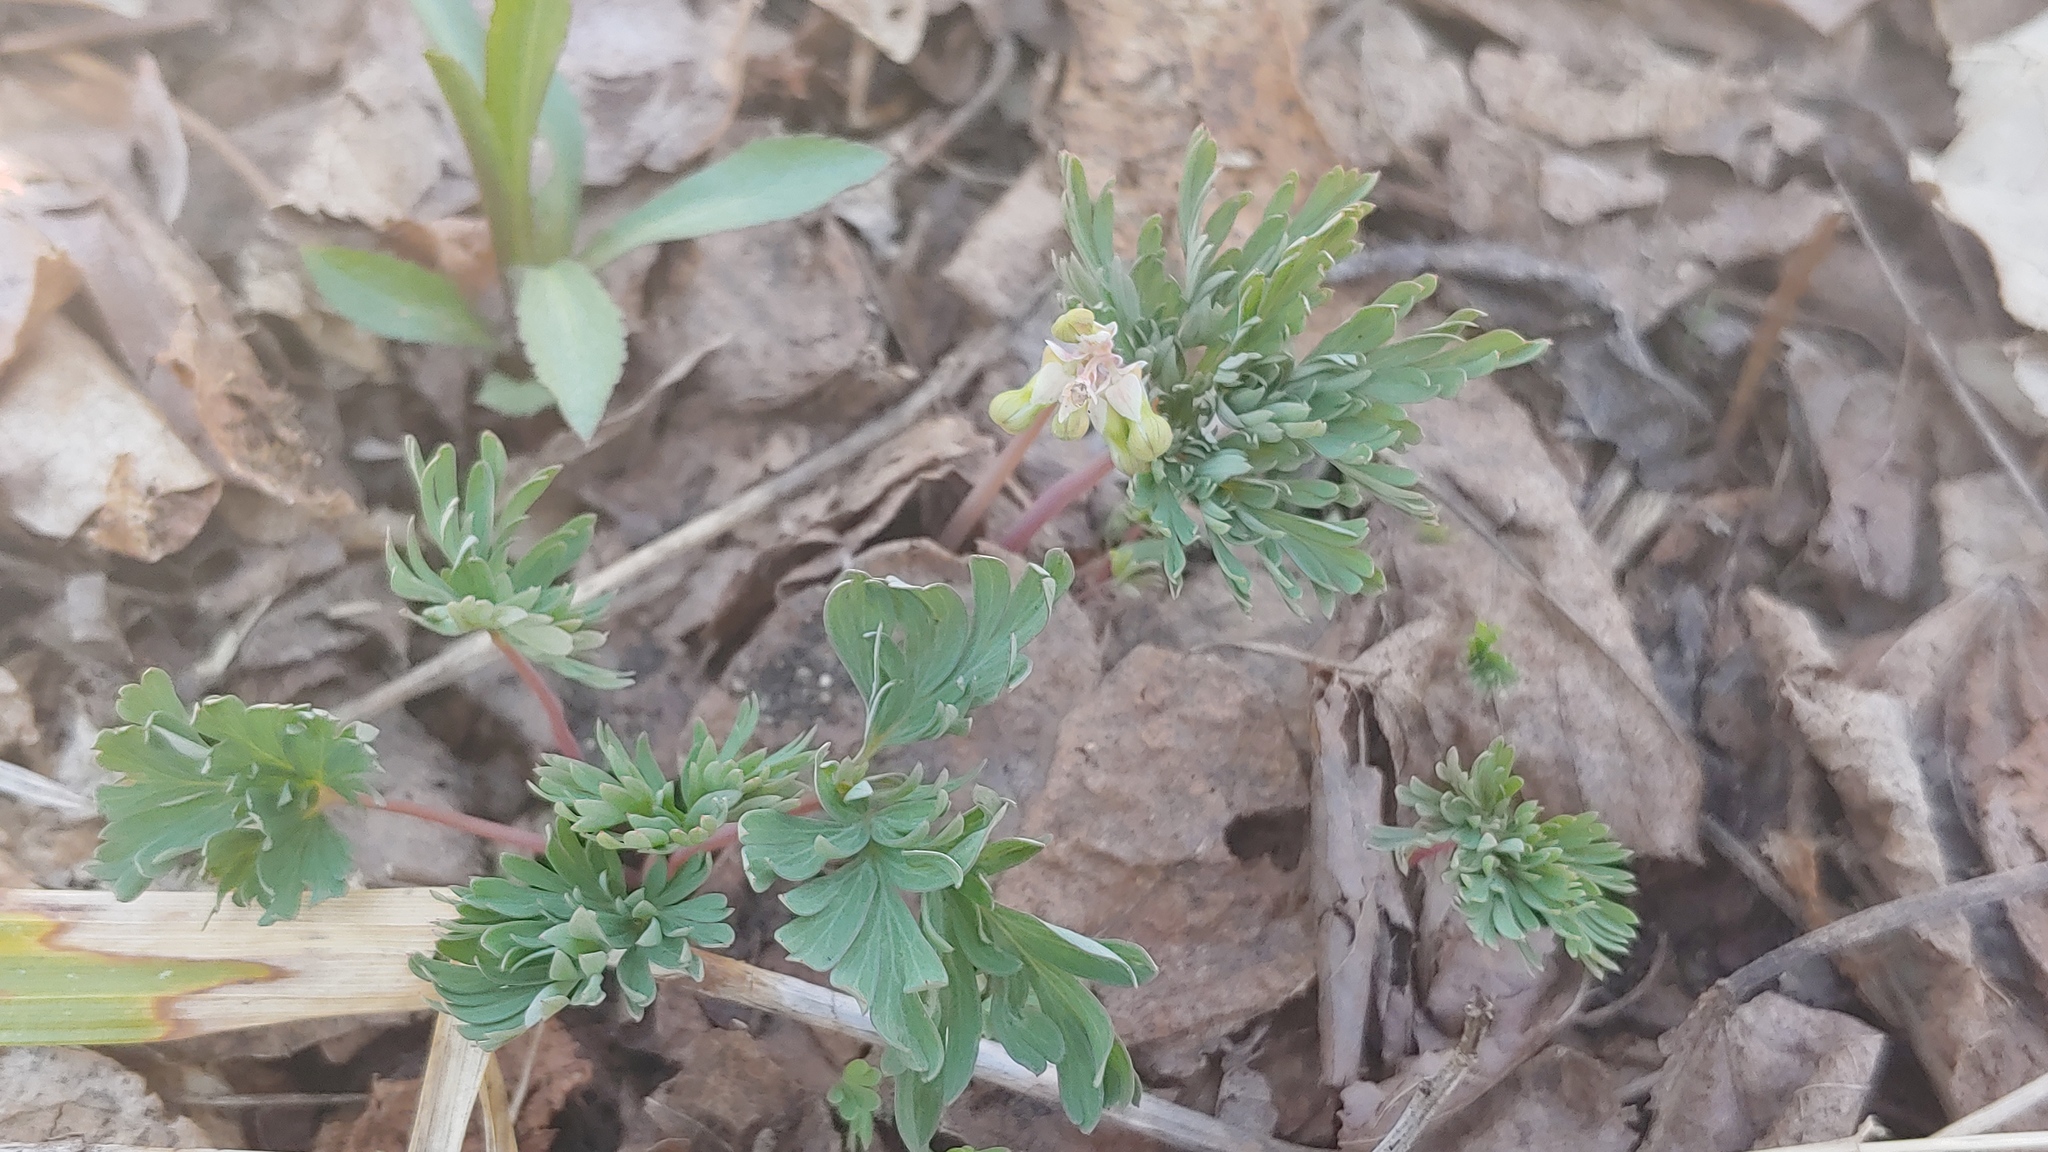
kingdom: Plantae
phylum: Tracheophyta
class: Magnoliopsida
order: Ranunculales
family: Papaveraceae
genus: Dicentra
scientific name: Dicentra cucullaria
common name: Dutchman's breeches
